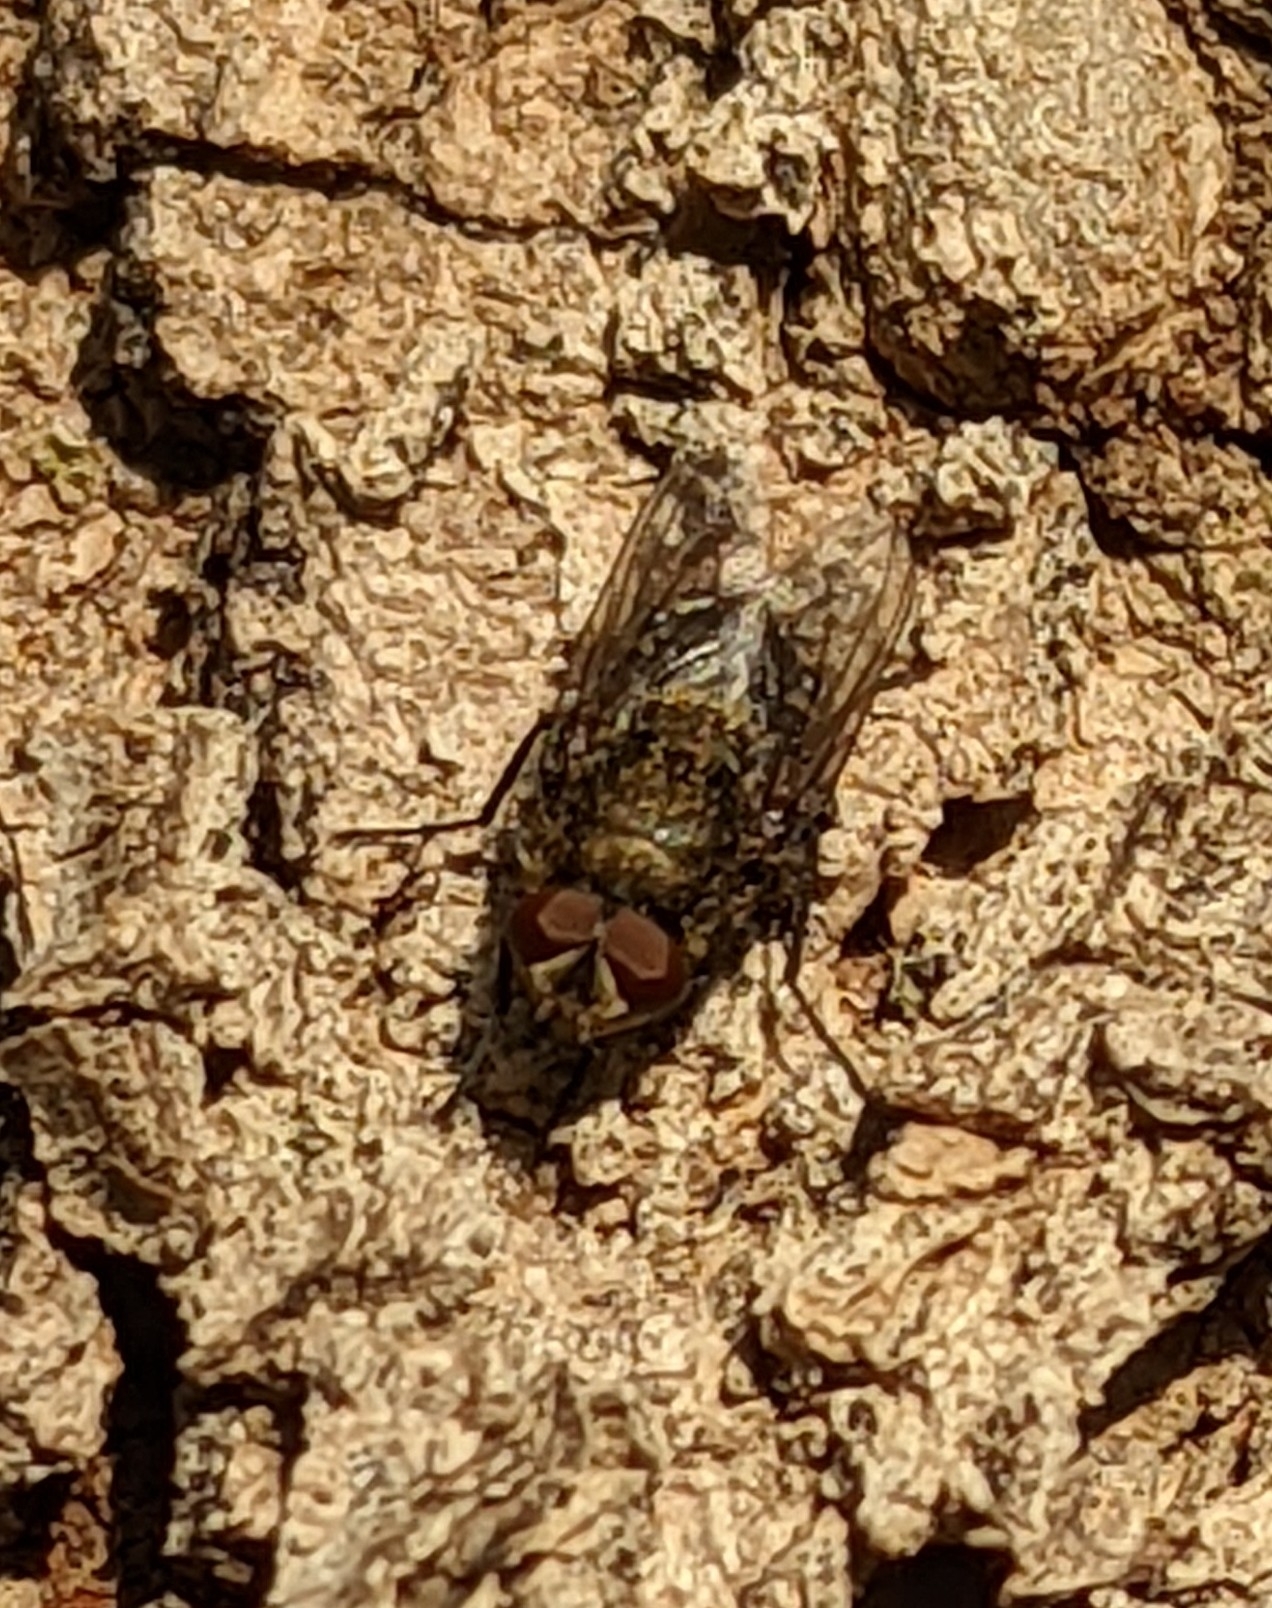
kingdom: Animalia
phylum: Arthropoda
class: Insecta
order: Diptera
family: Calliphoridae
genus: Calliphora
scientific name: Calliphora vicina
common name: Common blow flie
